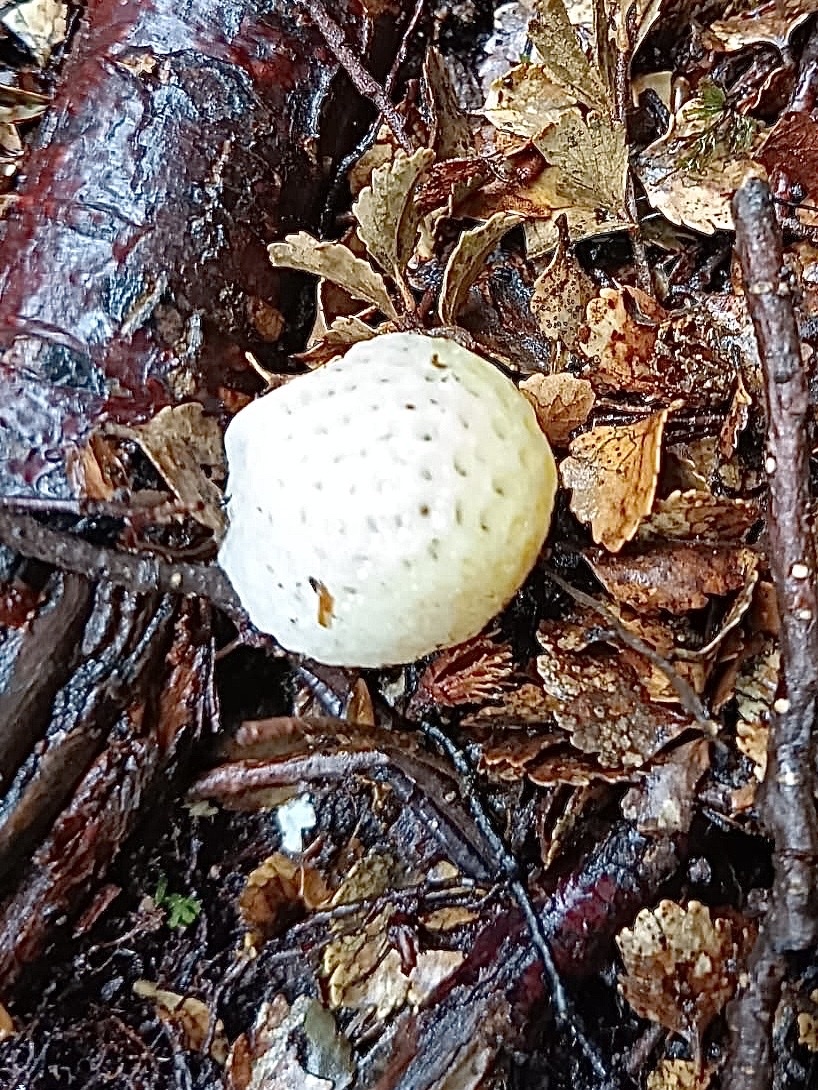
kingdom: Fungi
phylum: Ascomycota
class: Leotiomycetes
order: Cyttariales
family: Cyttariaceae
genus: Cyttaria
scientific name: Cyttaria gunnii
